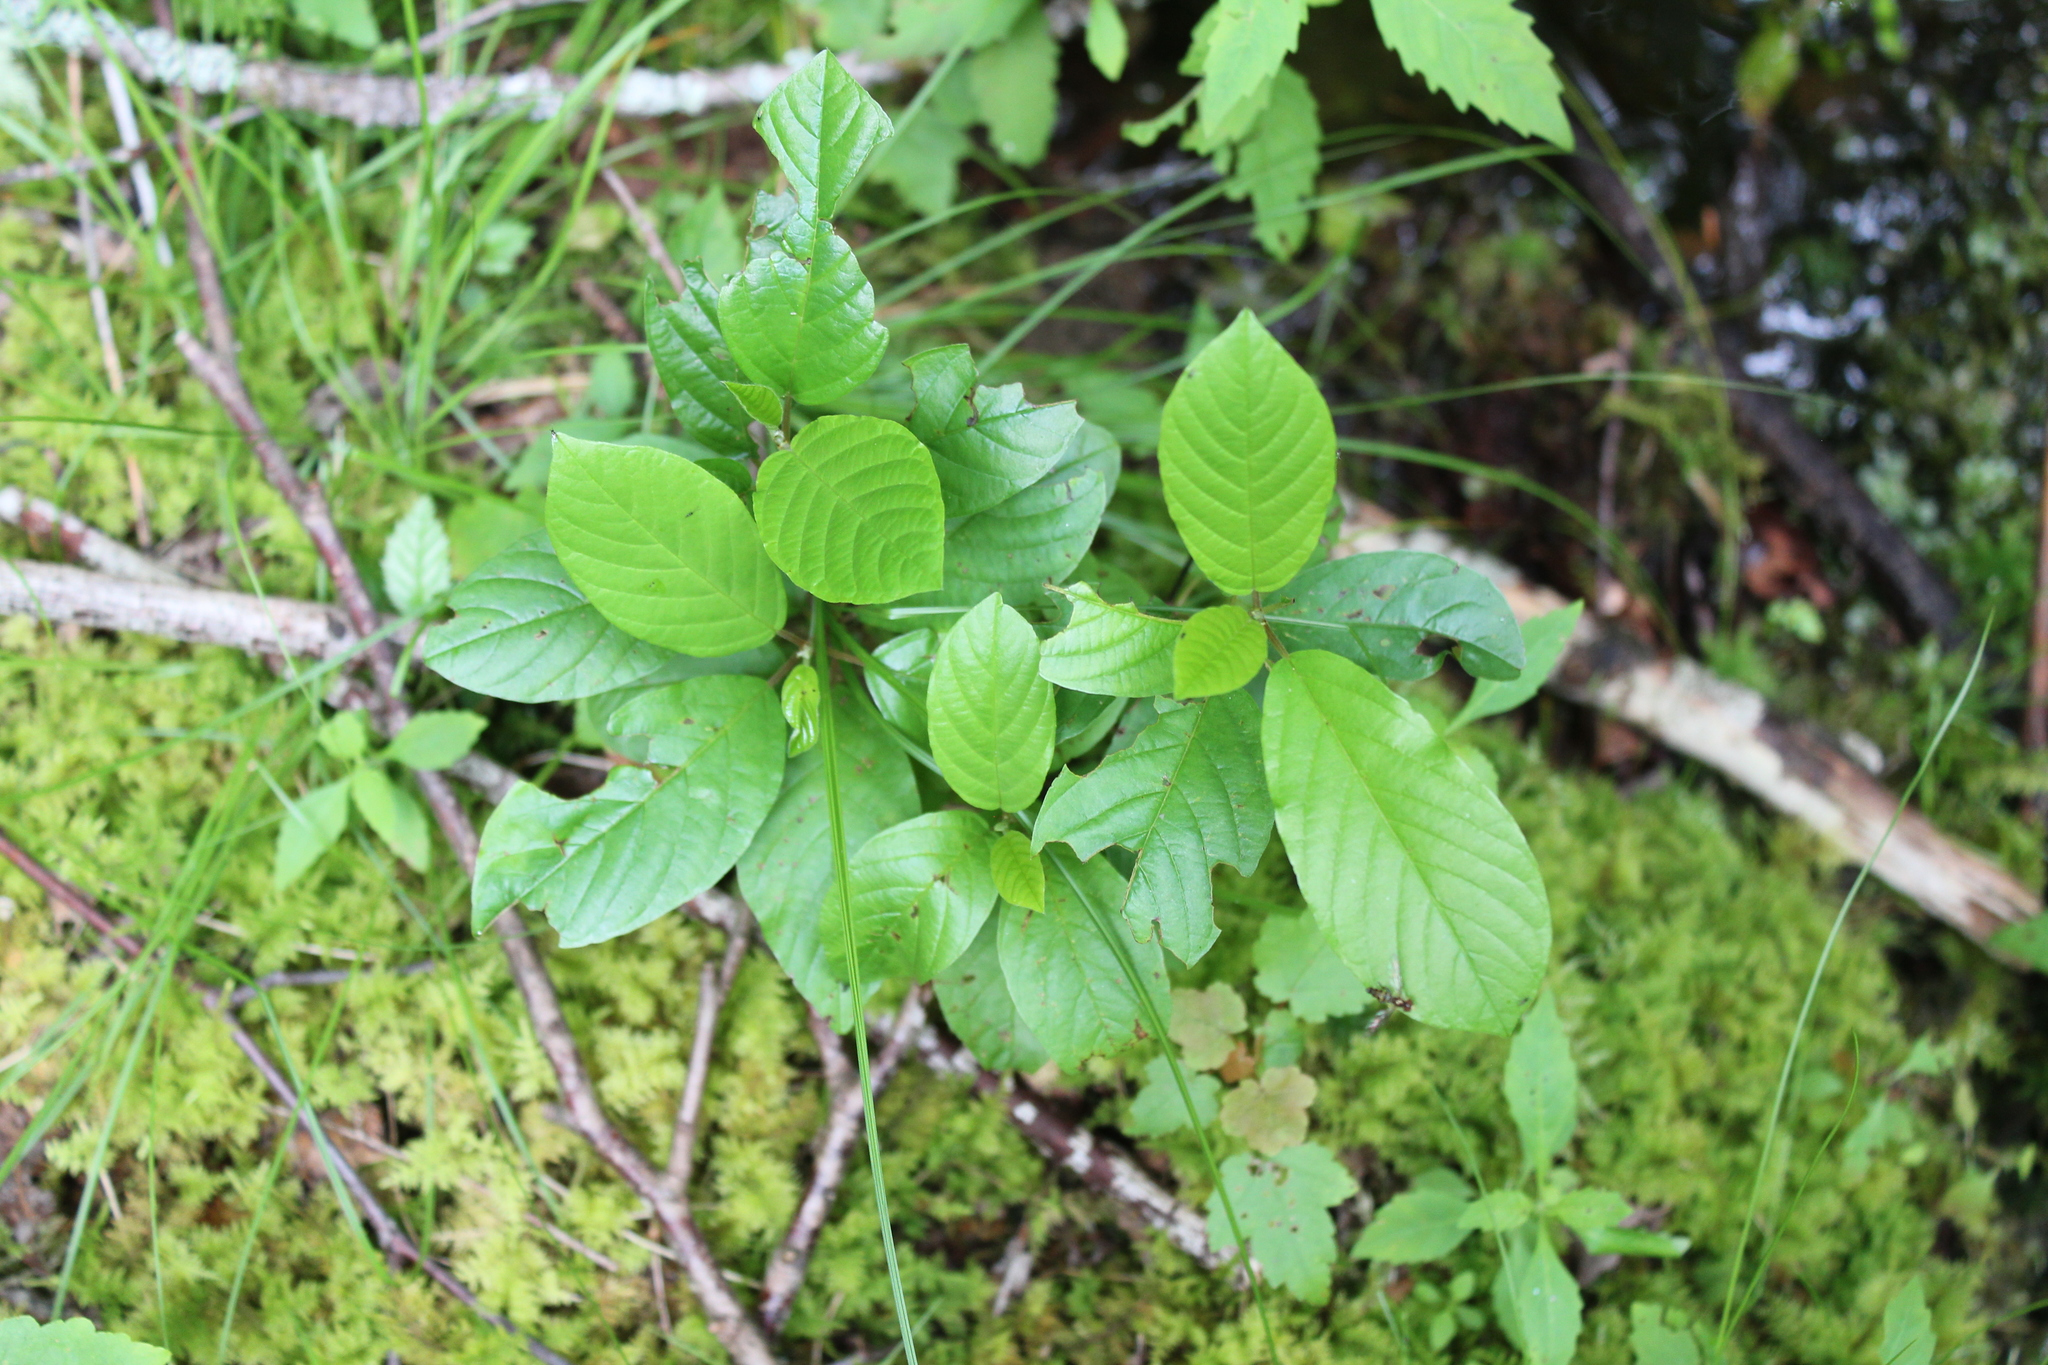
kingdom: Plantae
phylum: Tracheophyta
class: Magnoliopsida
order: Rosales
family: Rhamnaceae
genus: Frangula
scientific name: Frangula alnus
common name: Alder buckthorn
